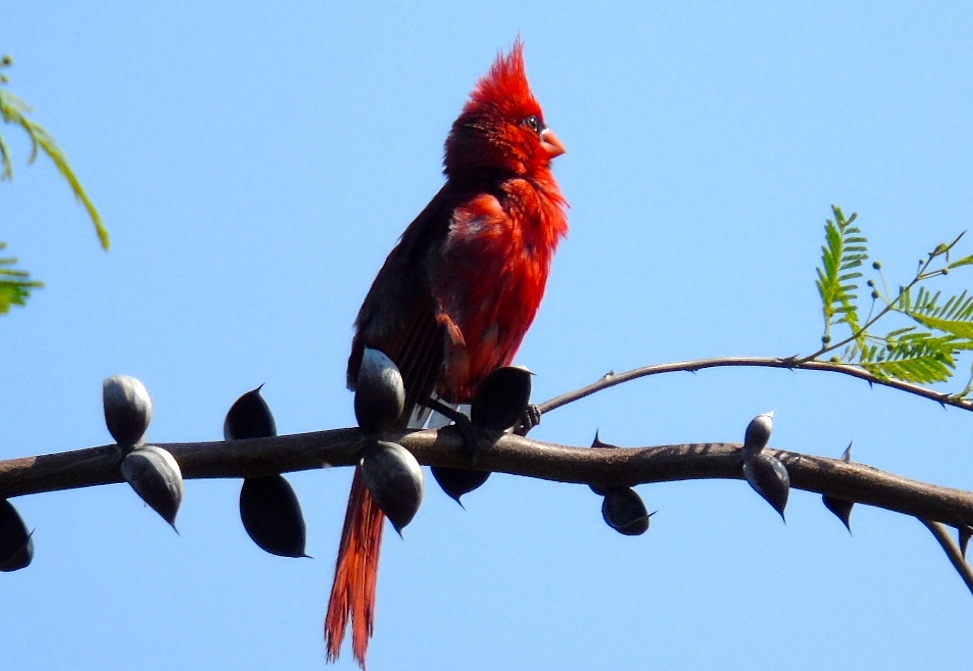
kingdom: Animalia
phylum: Chordata
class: Aves
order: Passeriformes
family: Cardinalidae
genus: Cardinalis
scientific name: Cardinalis cardinalis
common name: Northern cardinal
